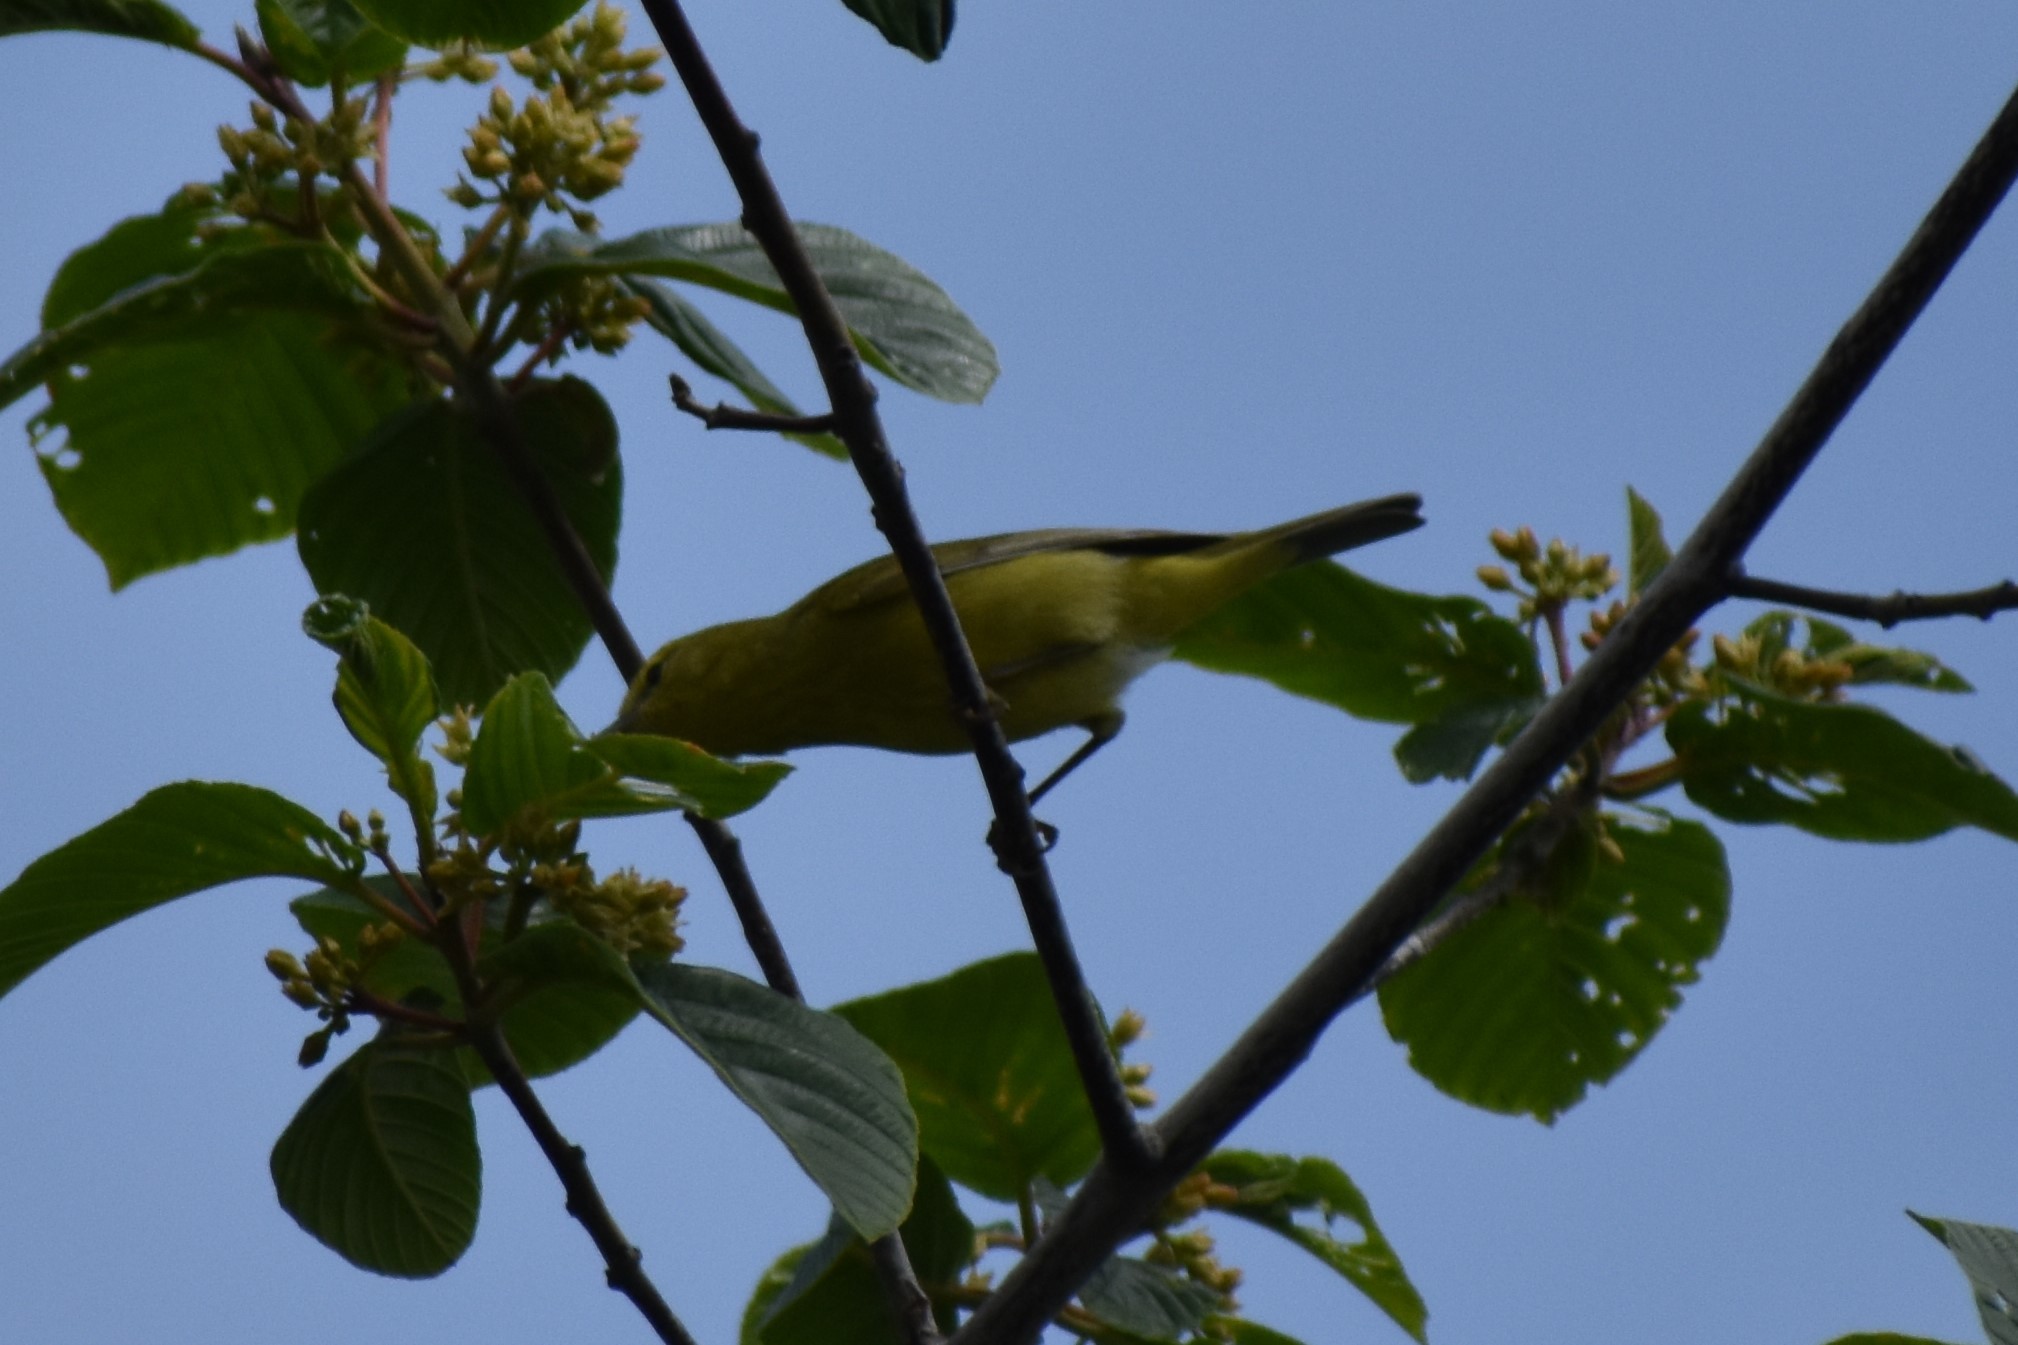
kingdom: Animalia
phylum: Chordata
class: Aves
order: Passeriformes
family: Parulidae
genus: Leiothlypis
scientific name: Leiothlypis celata
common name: Orange-crowned warbler
